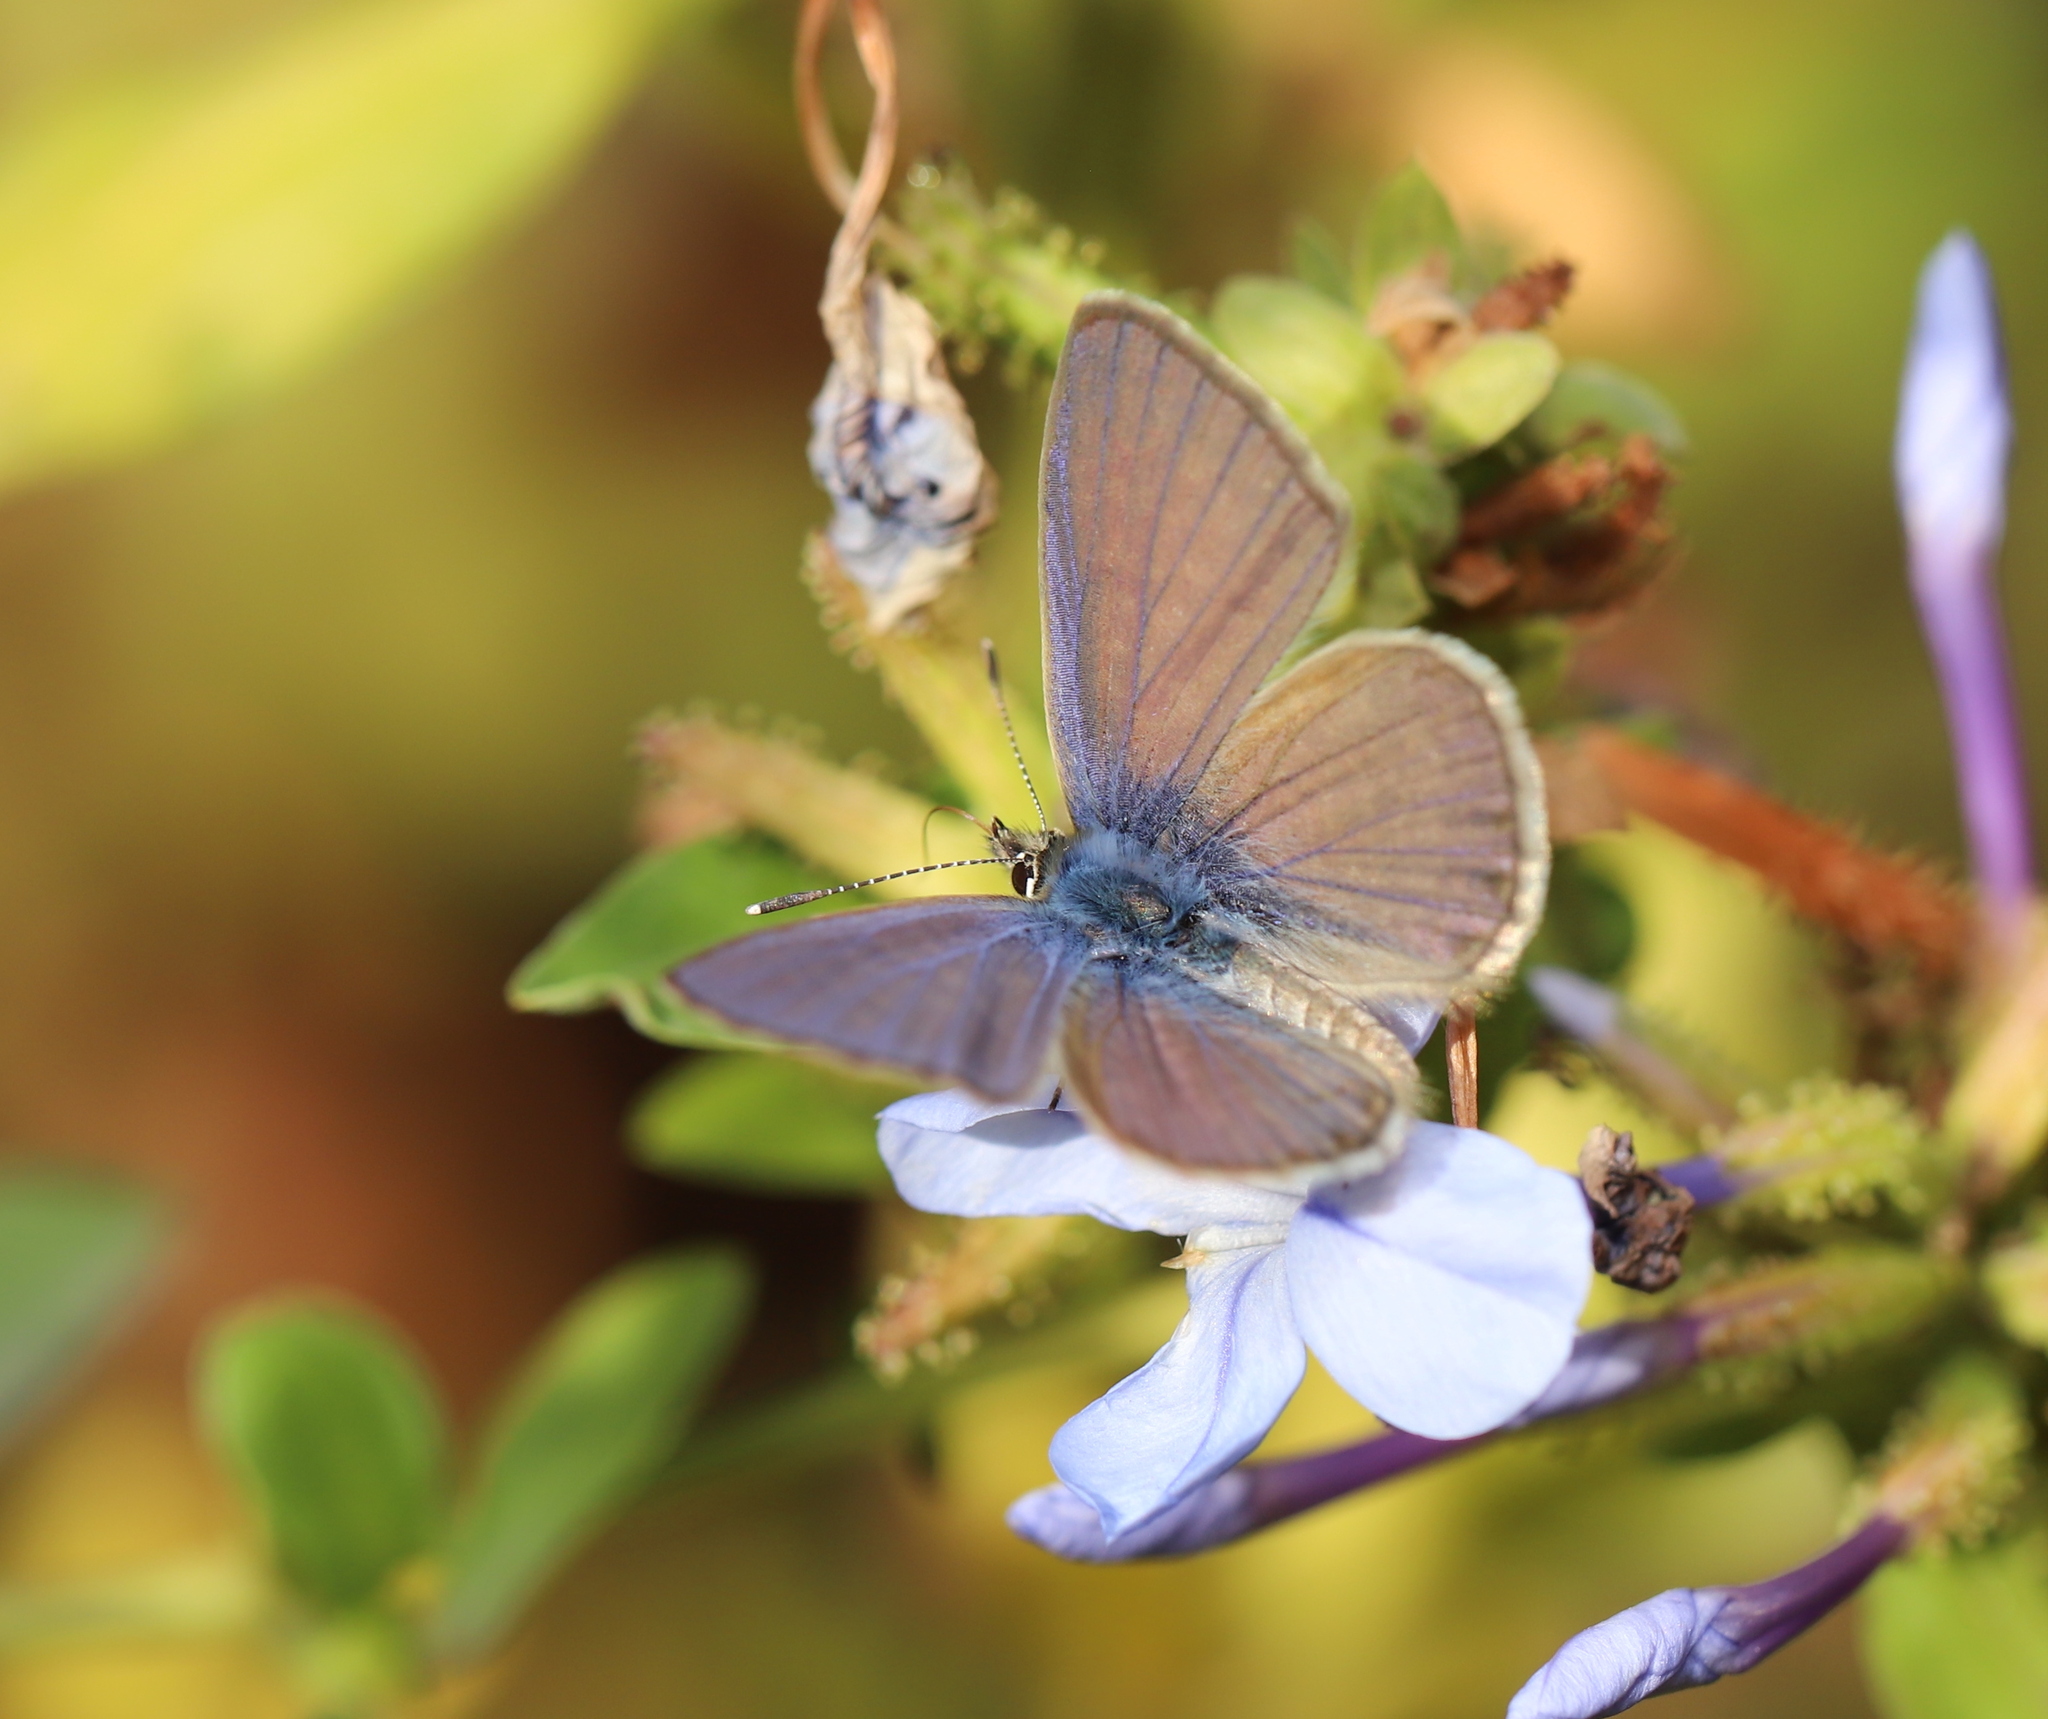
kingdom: Animalia
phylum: Arthropoda
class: Insecta
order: Lepidoptera
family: Lycaenidae
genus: Leptotes
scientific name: Leptotes trigemmatus
